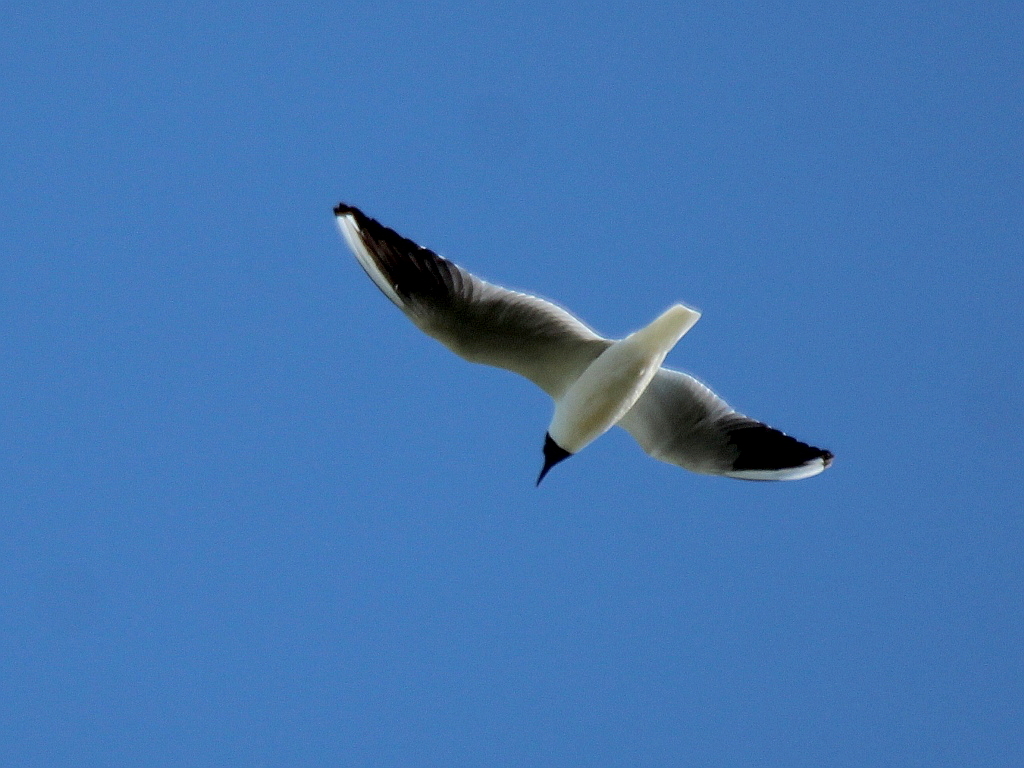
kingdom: Animalia
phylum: Chordata
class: Aves
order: Charadriiformes
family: Laridae
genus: Chroicocephalus
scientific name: Chroicocephalus ridibundus
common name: Black-headed gull
